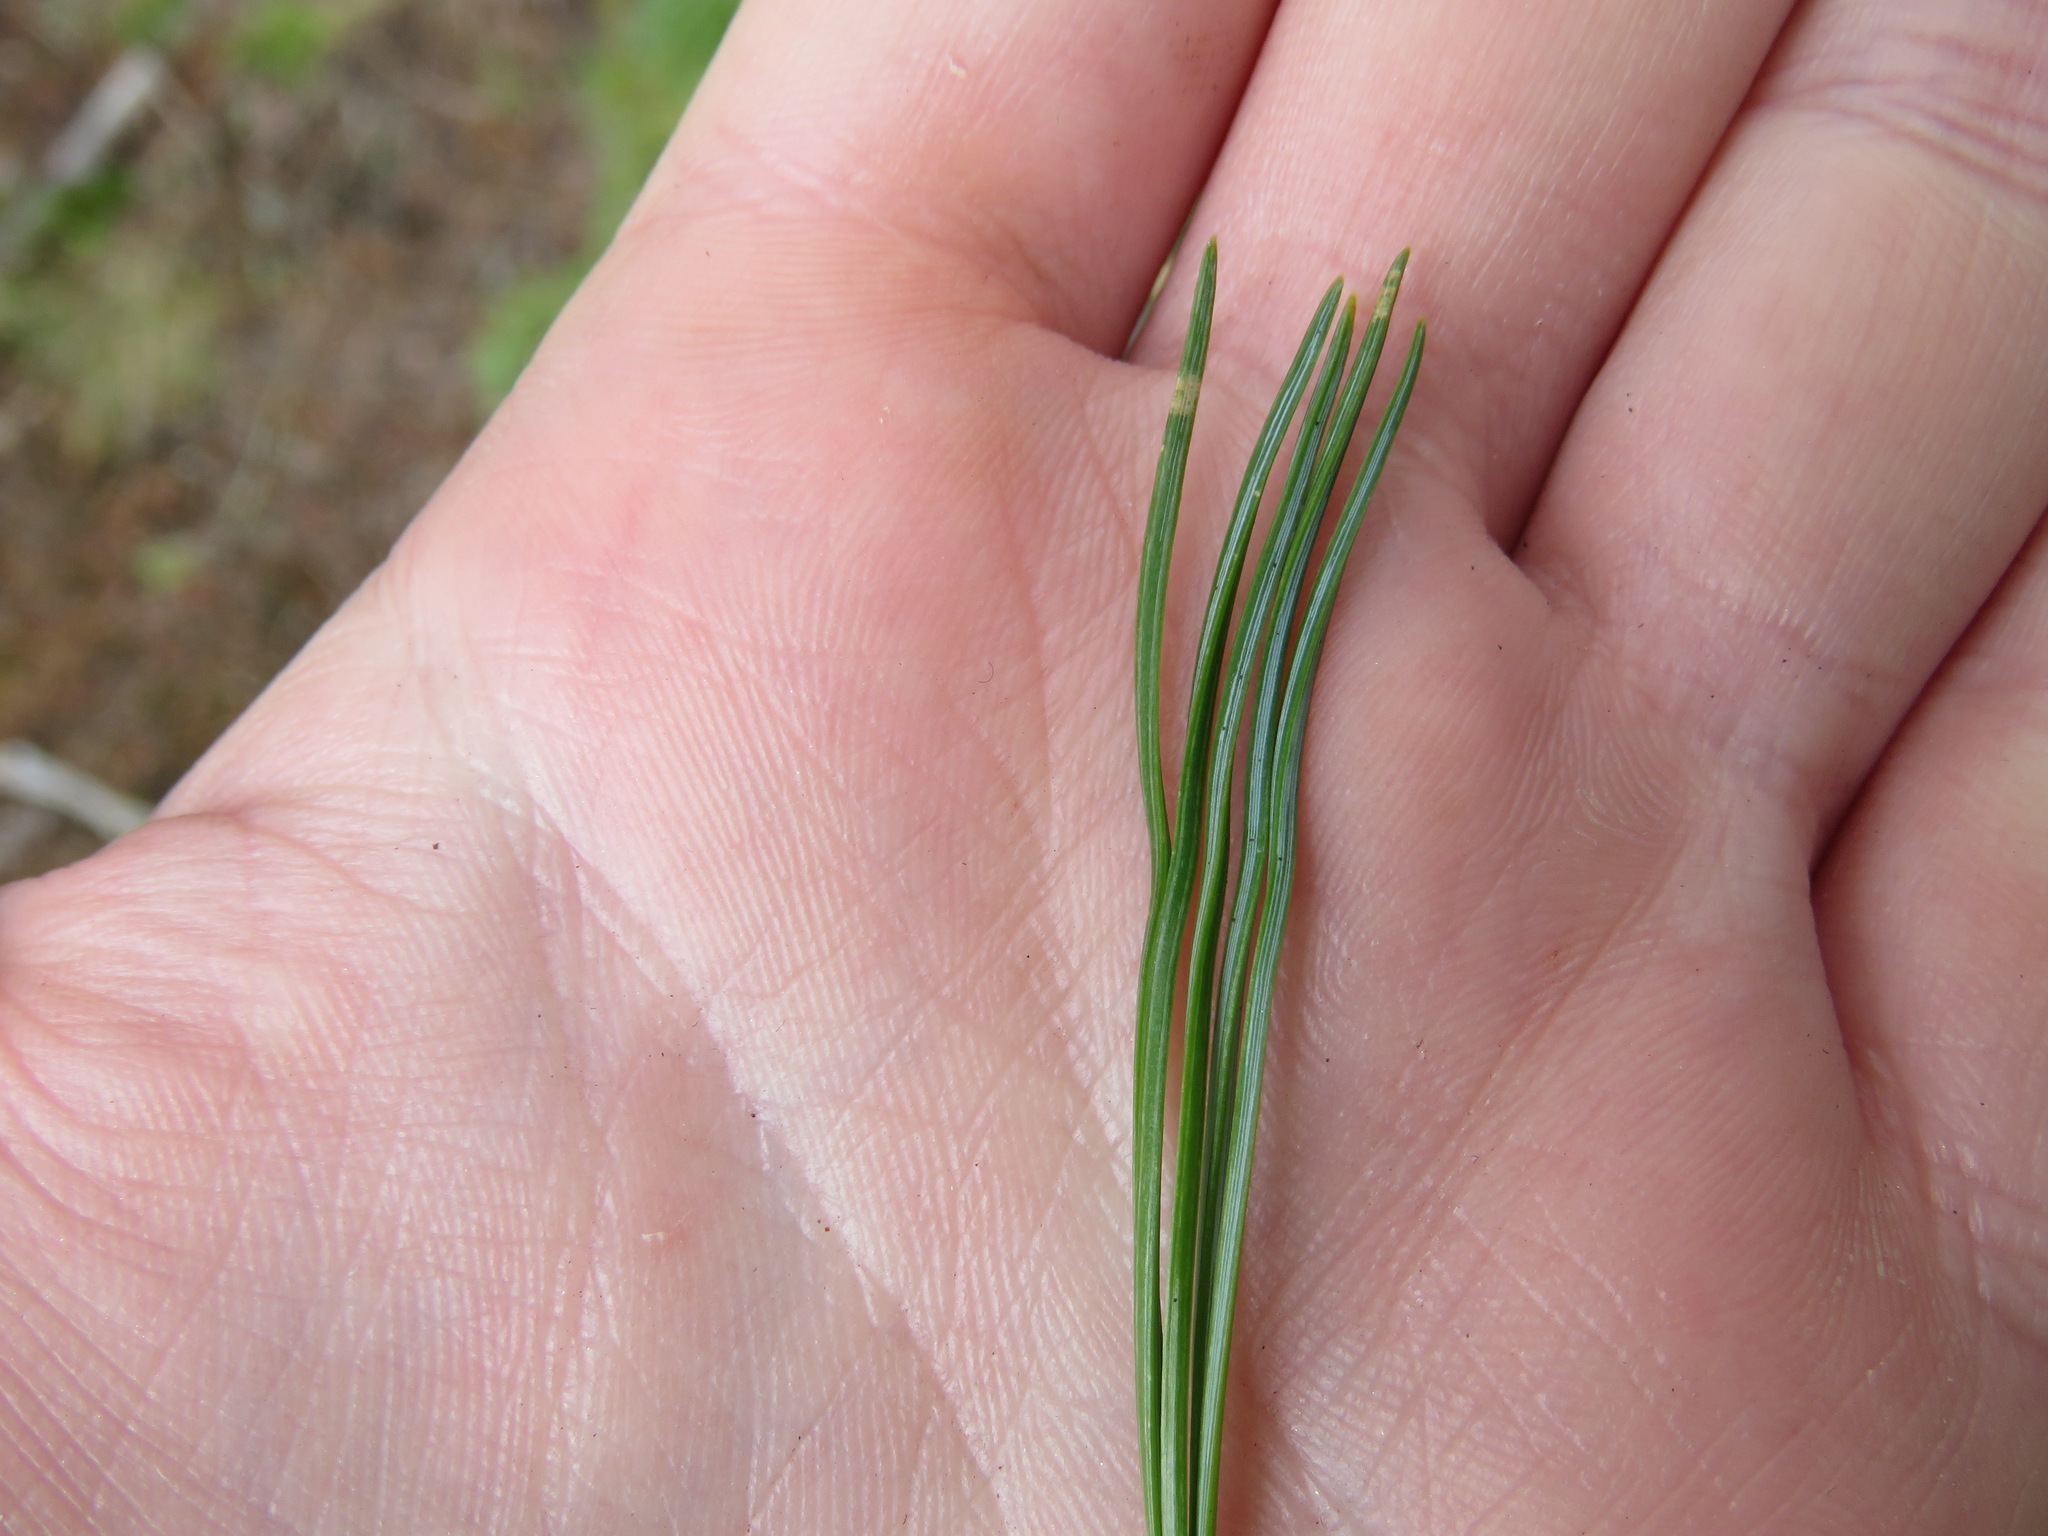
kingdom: Plantae
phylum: Tracheophyta
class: Pinopsida
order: Pinales
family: Pinaceae
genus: Pinus
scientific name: Pinus monticola
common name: Western white pine
